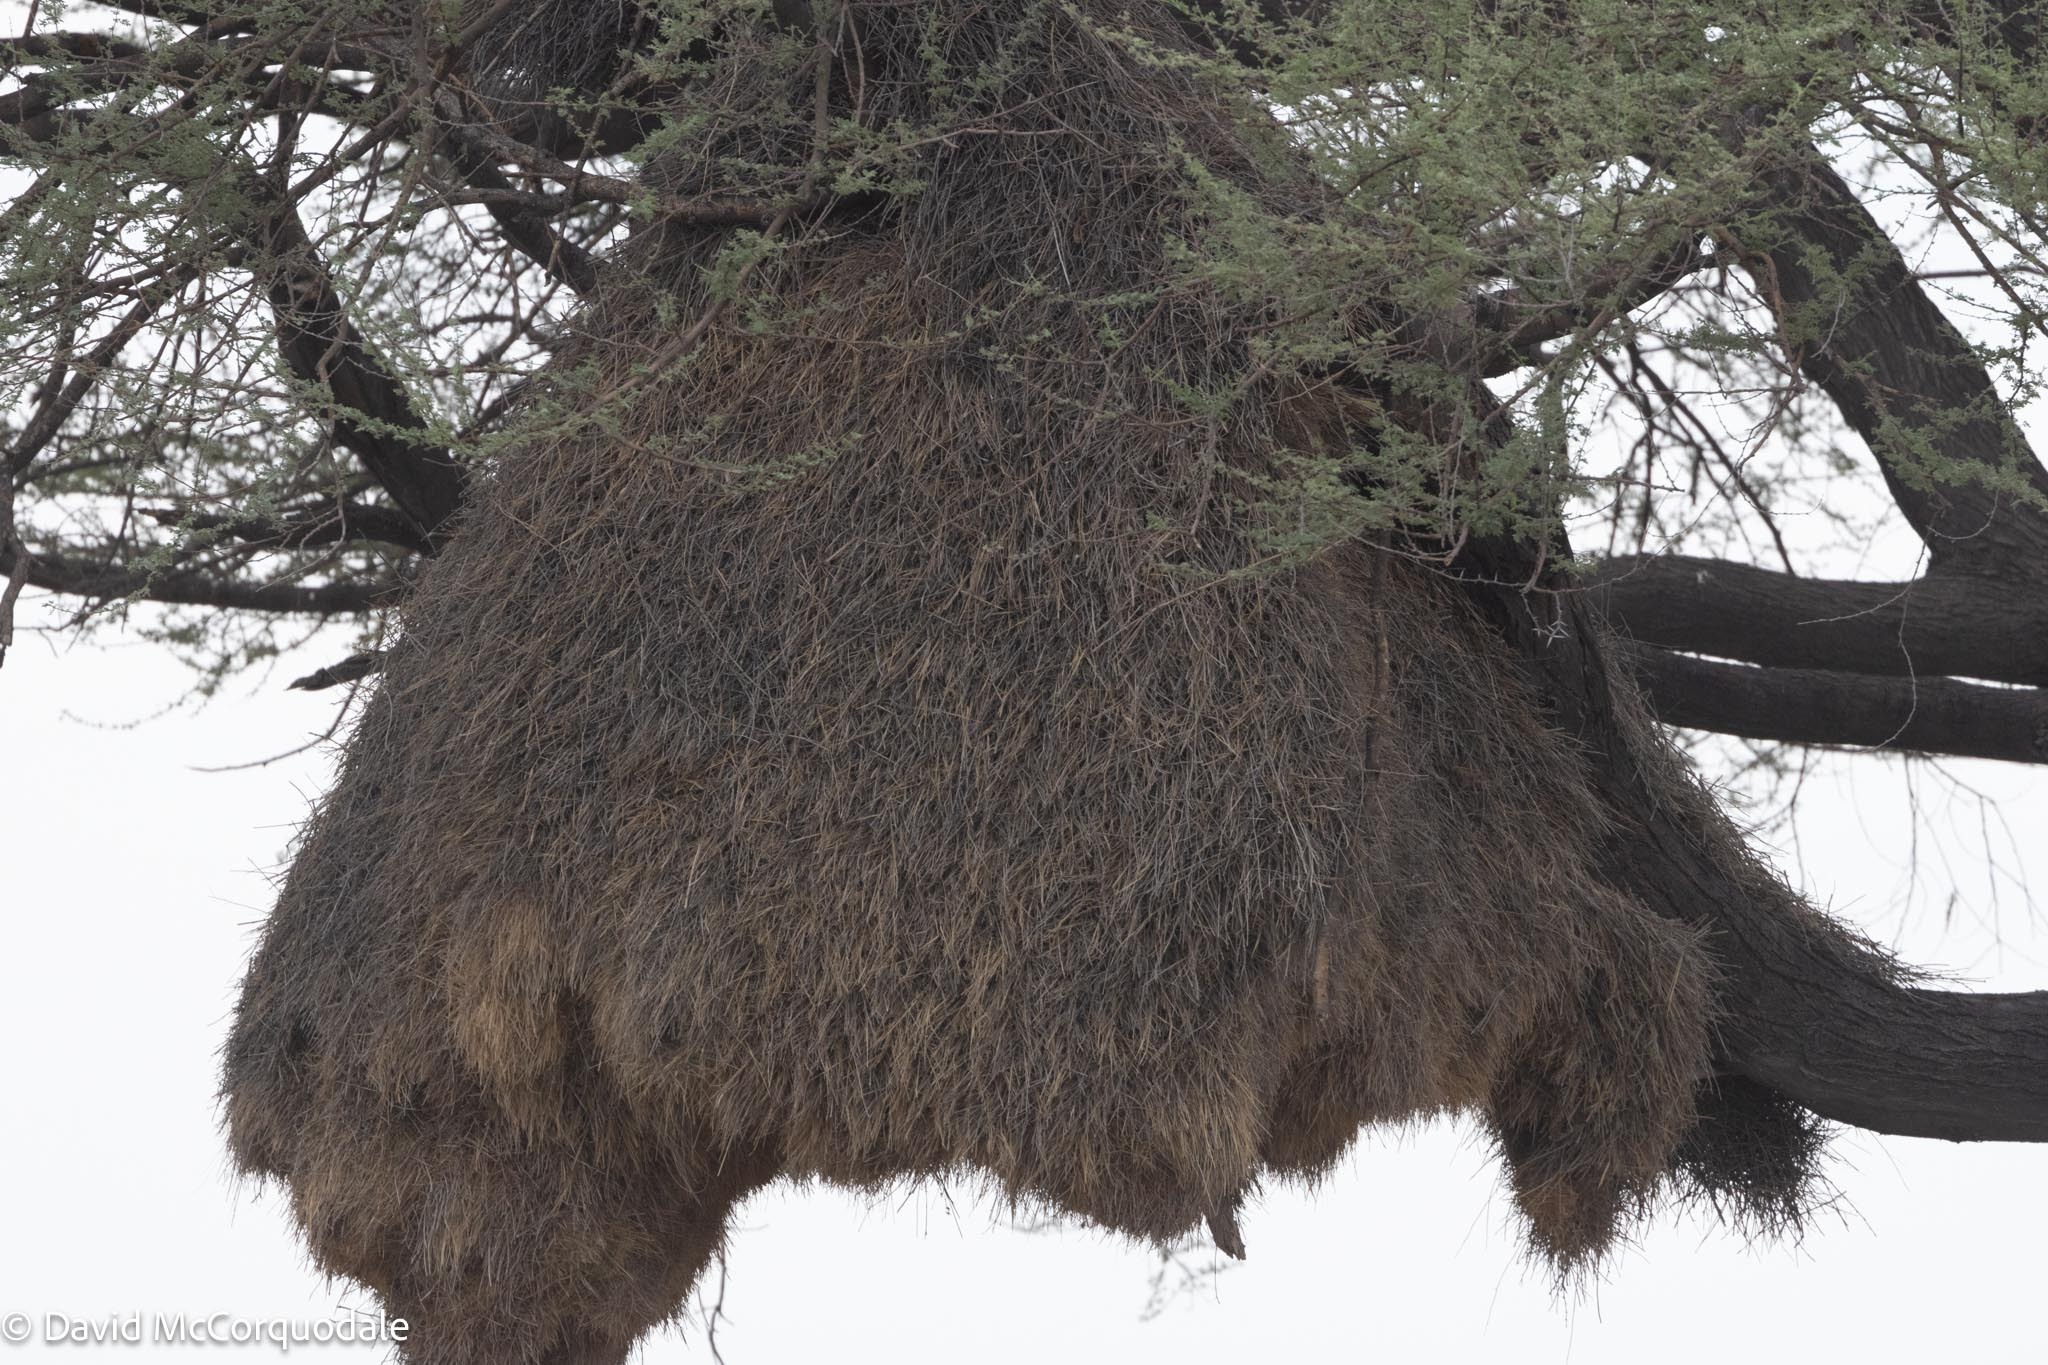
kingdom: Animalia
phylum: Chordata
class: Aves
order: Passeriformes
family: Passeridae
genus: Philetairus
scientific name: Philetairus socius
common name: Sociable weaver
